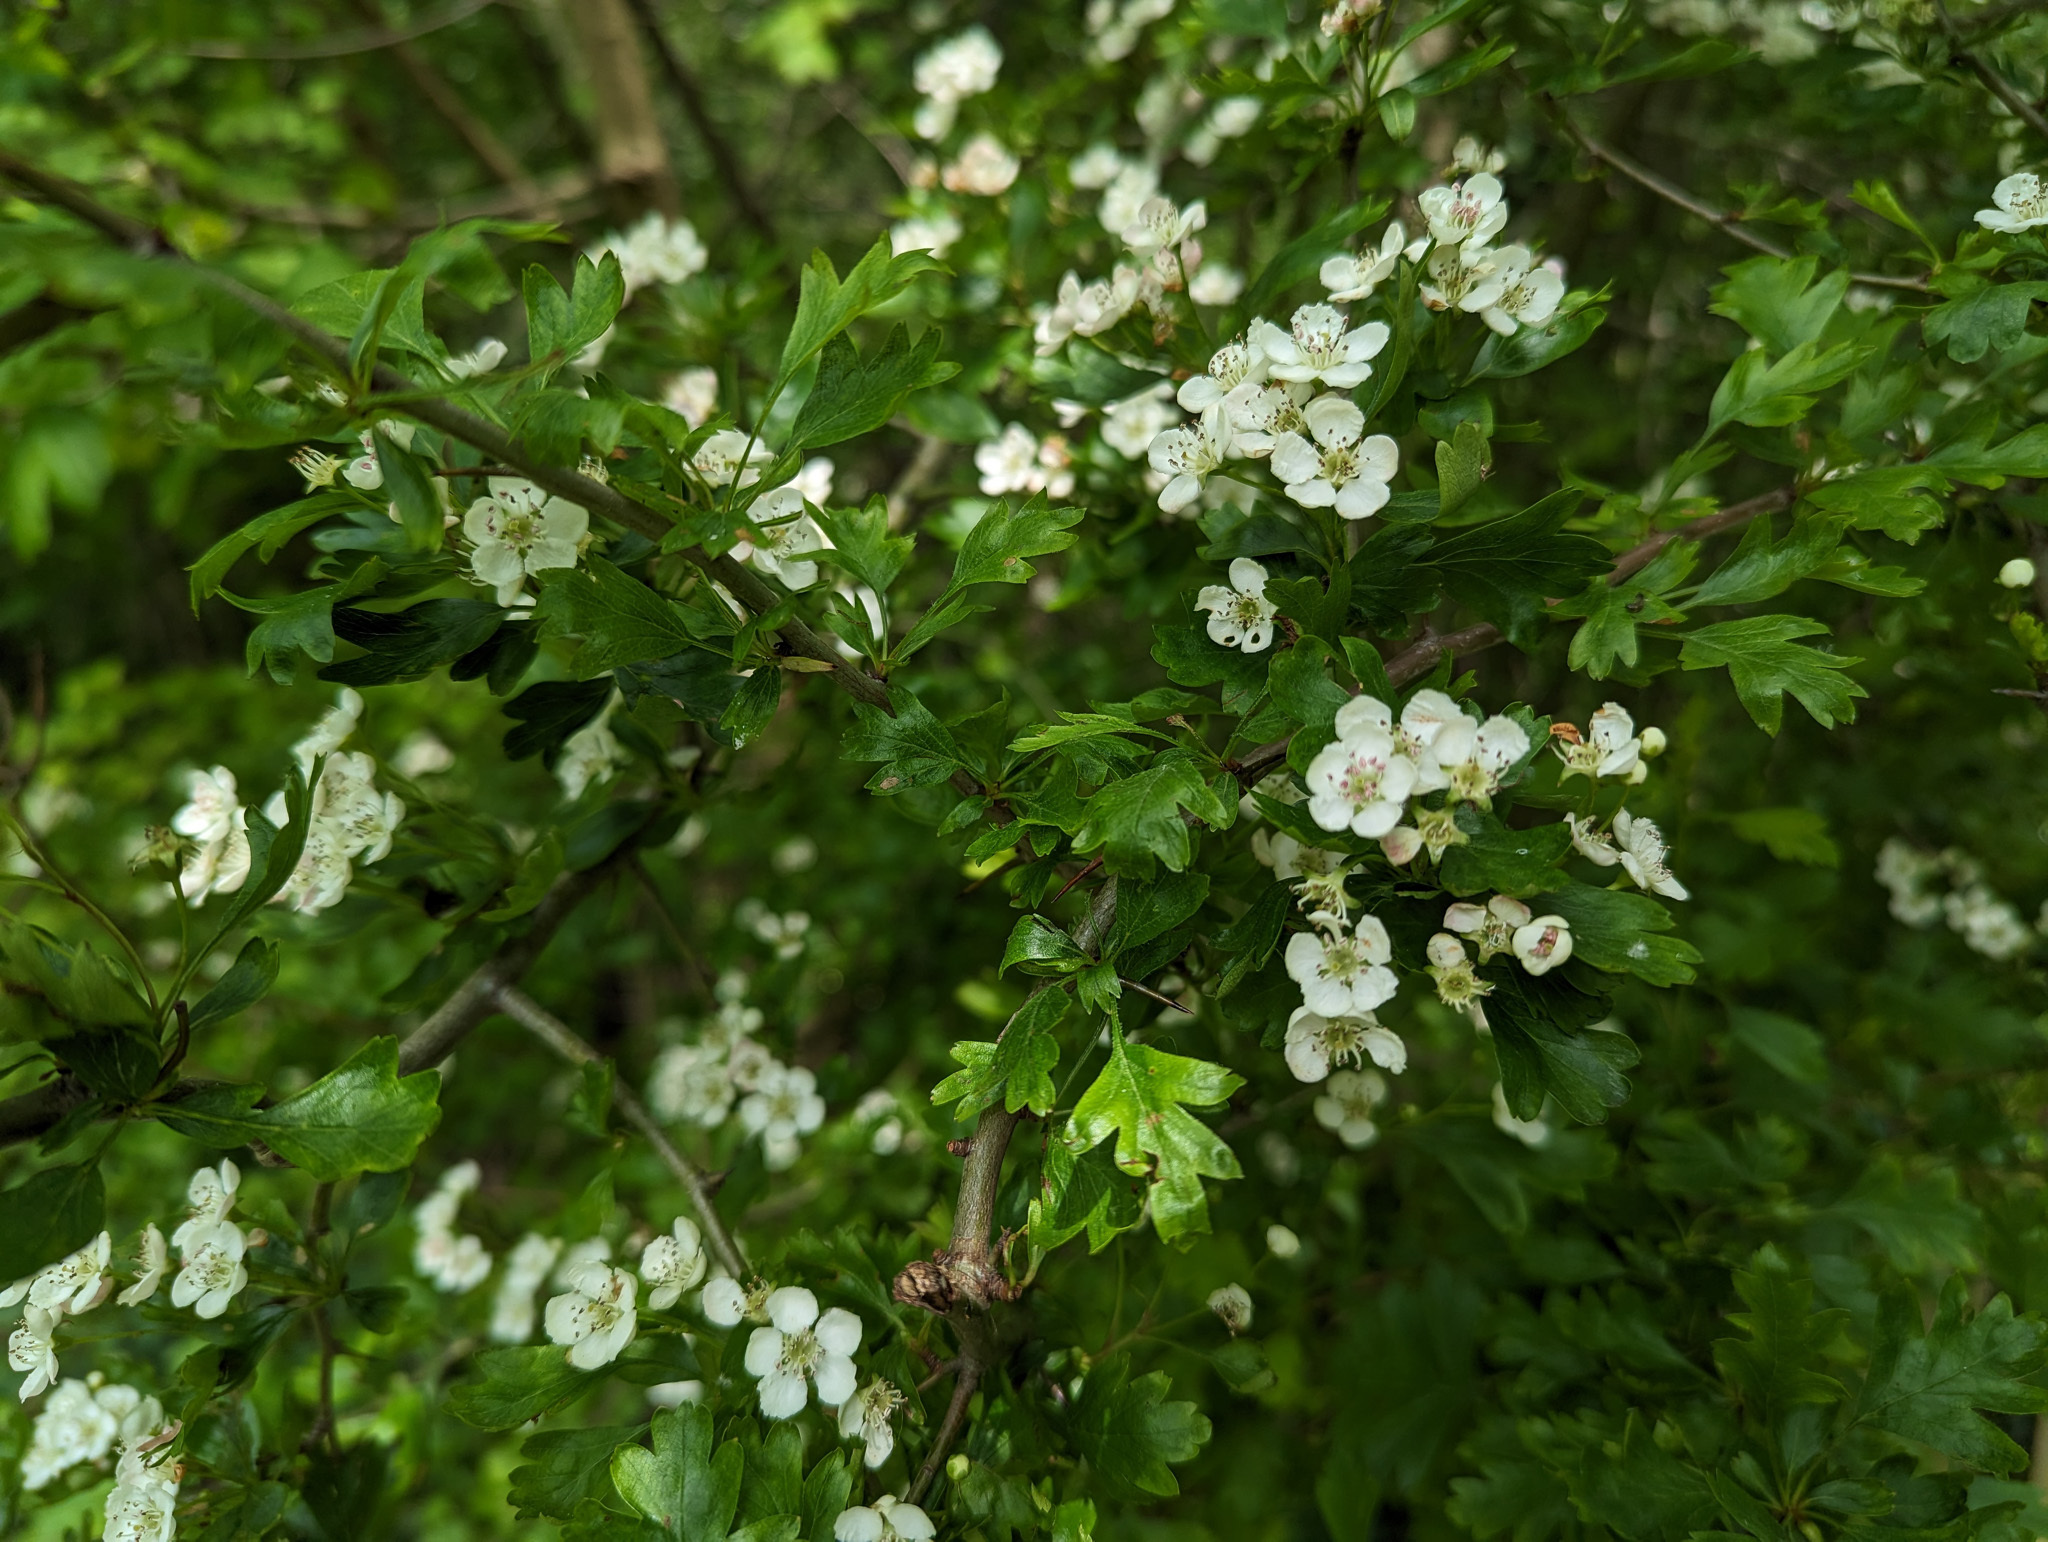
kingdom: Plantae
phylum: Tracheophyta
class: Magnoliopsida
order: Rosales
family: Rosaceae
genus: Crataegus
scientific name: Crataegus monogyna
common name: Hawthorn
